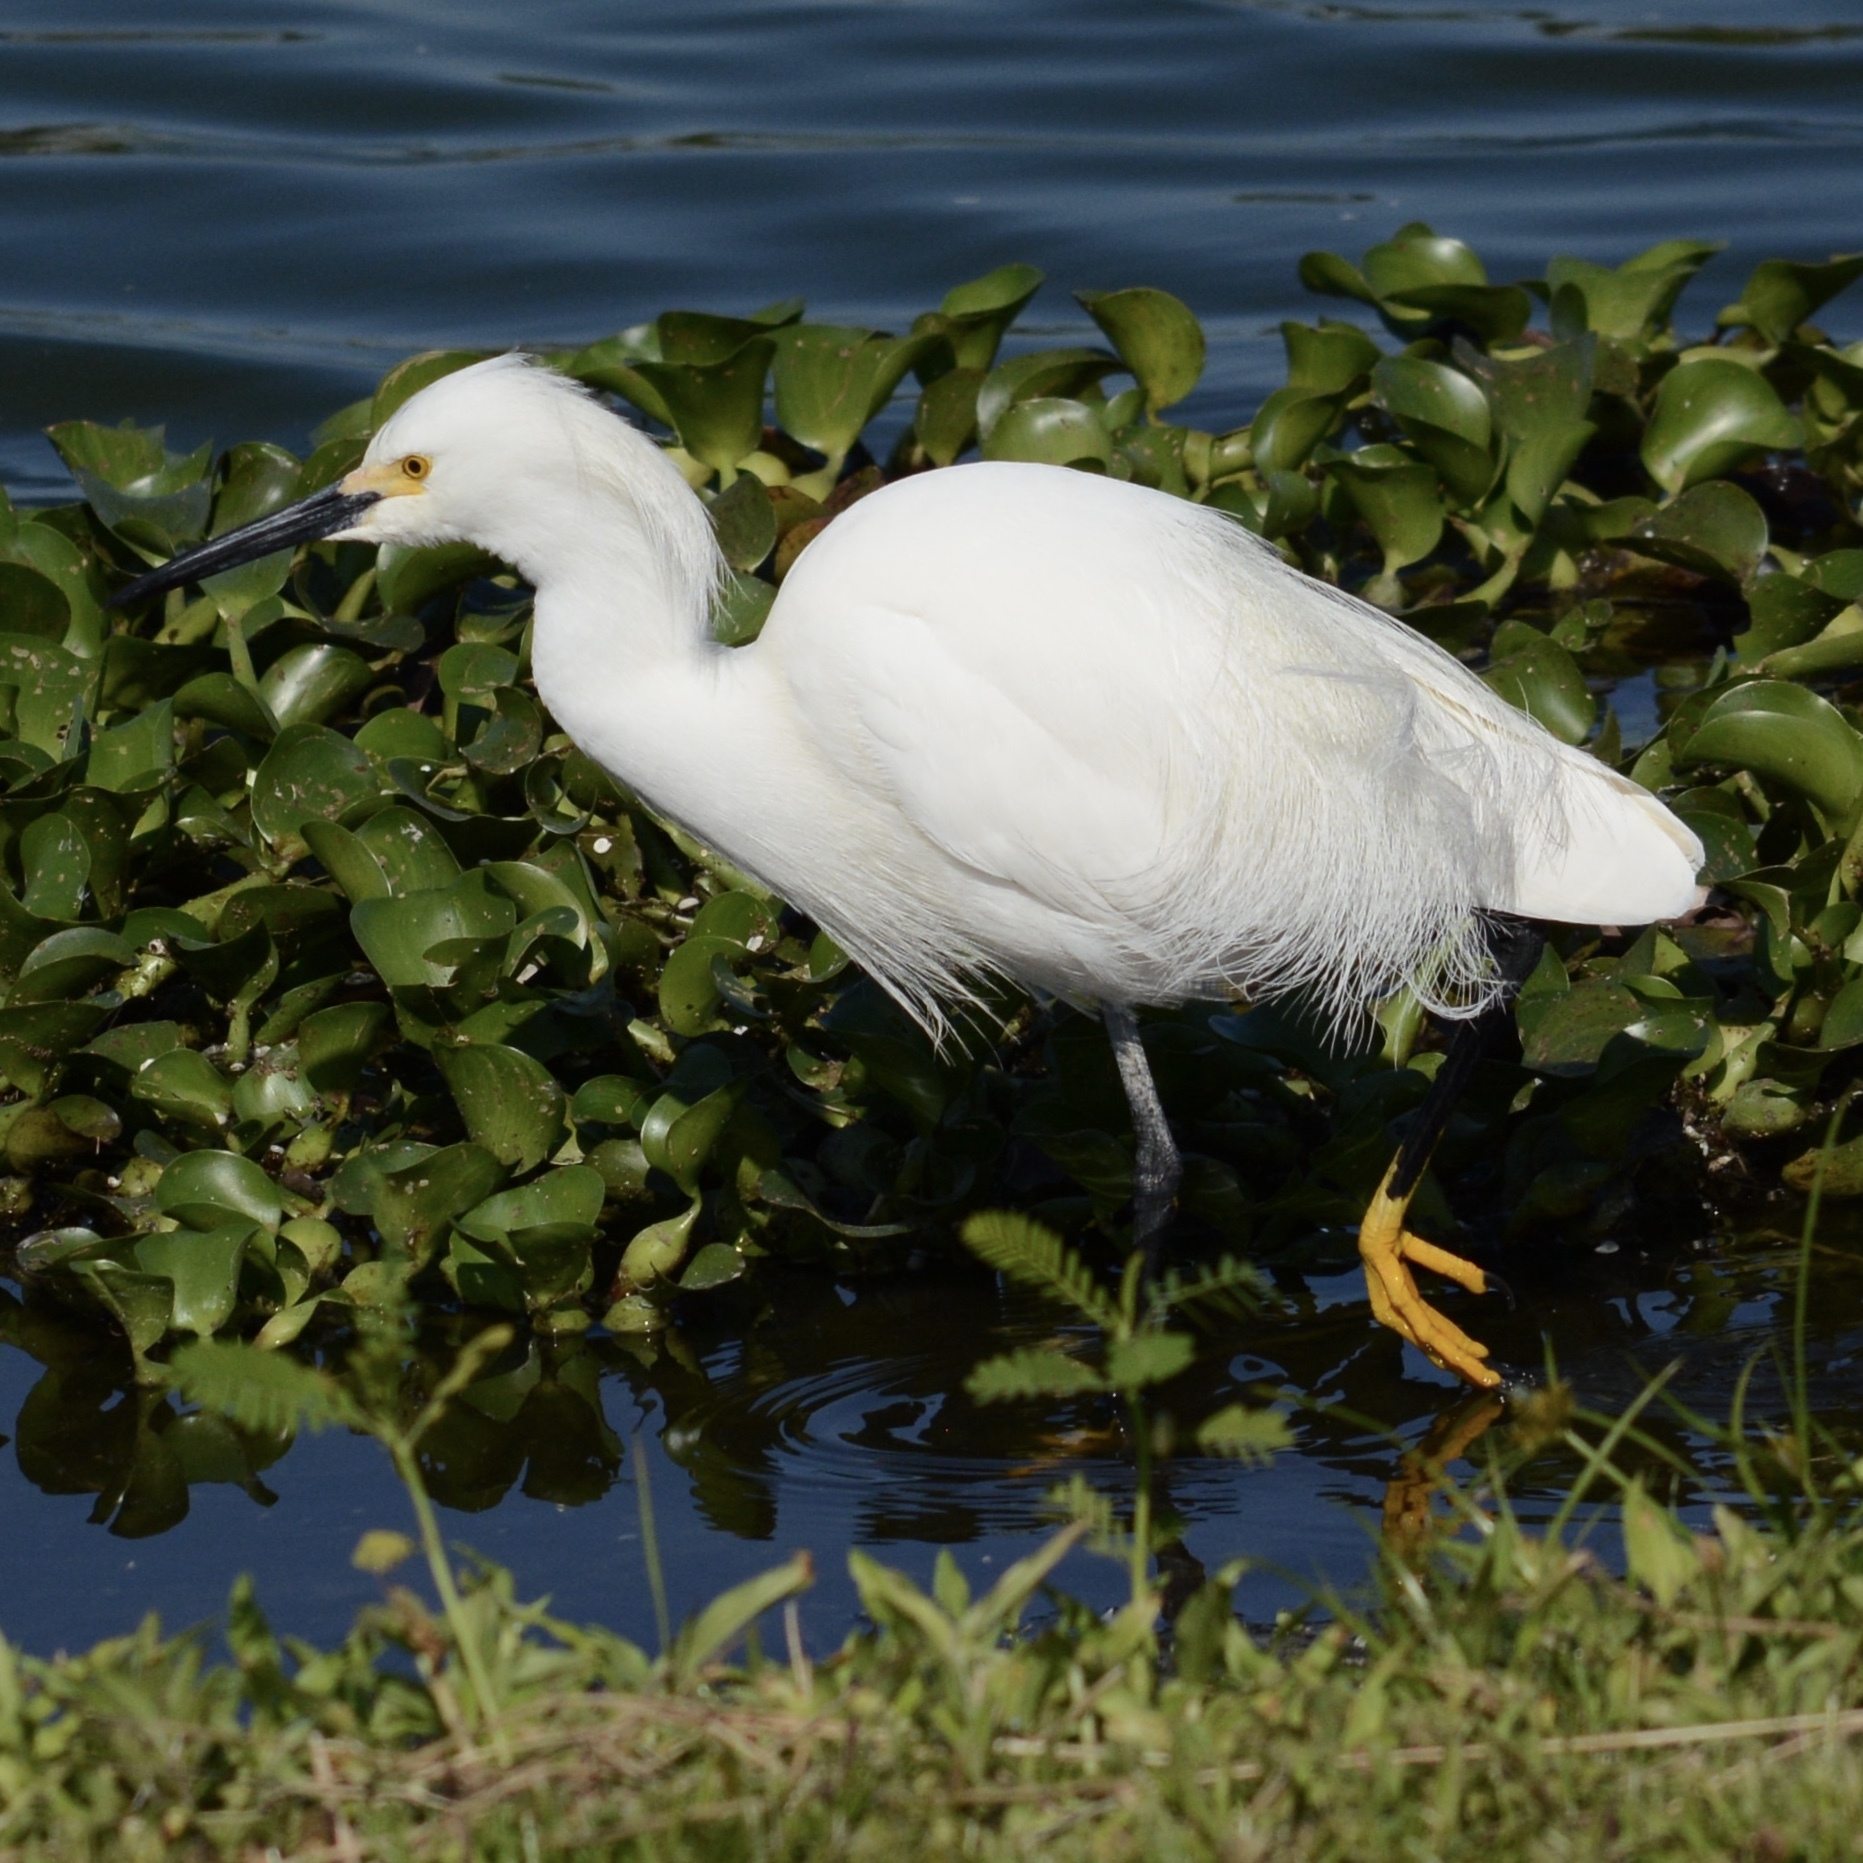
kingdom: Animalia
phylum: Chordata
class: Aves
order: Pelecaniformes
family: Ardeidae
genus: Egretta
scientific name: Egretta thula
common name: Snowy egret
